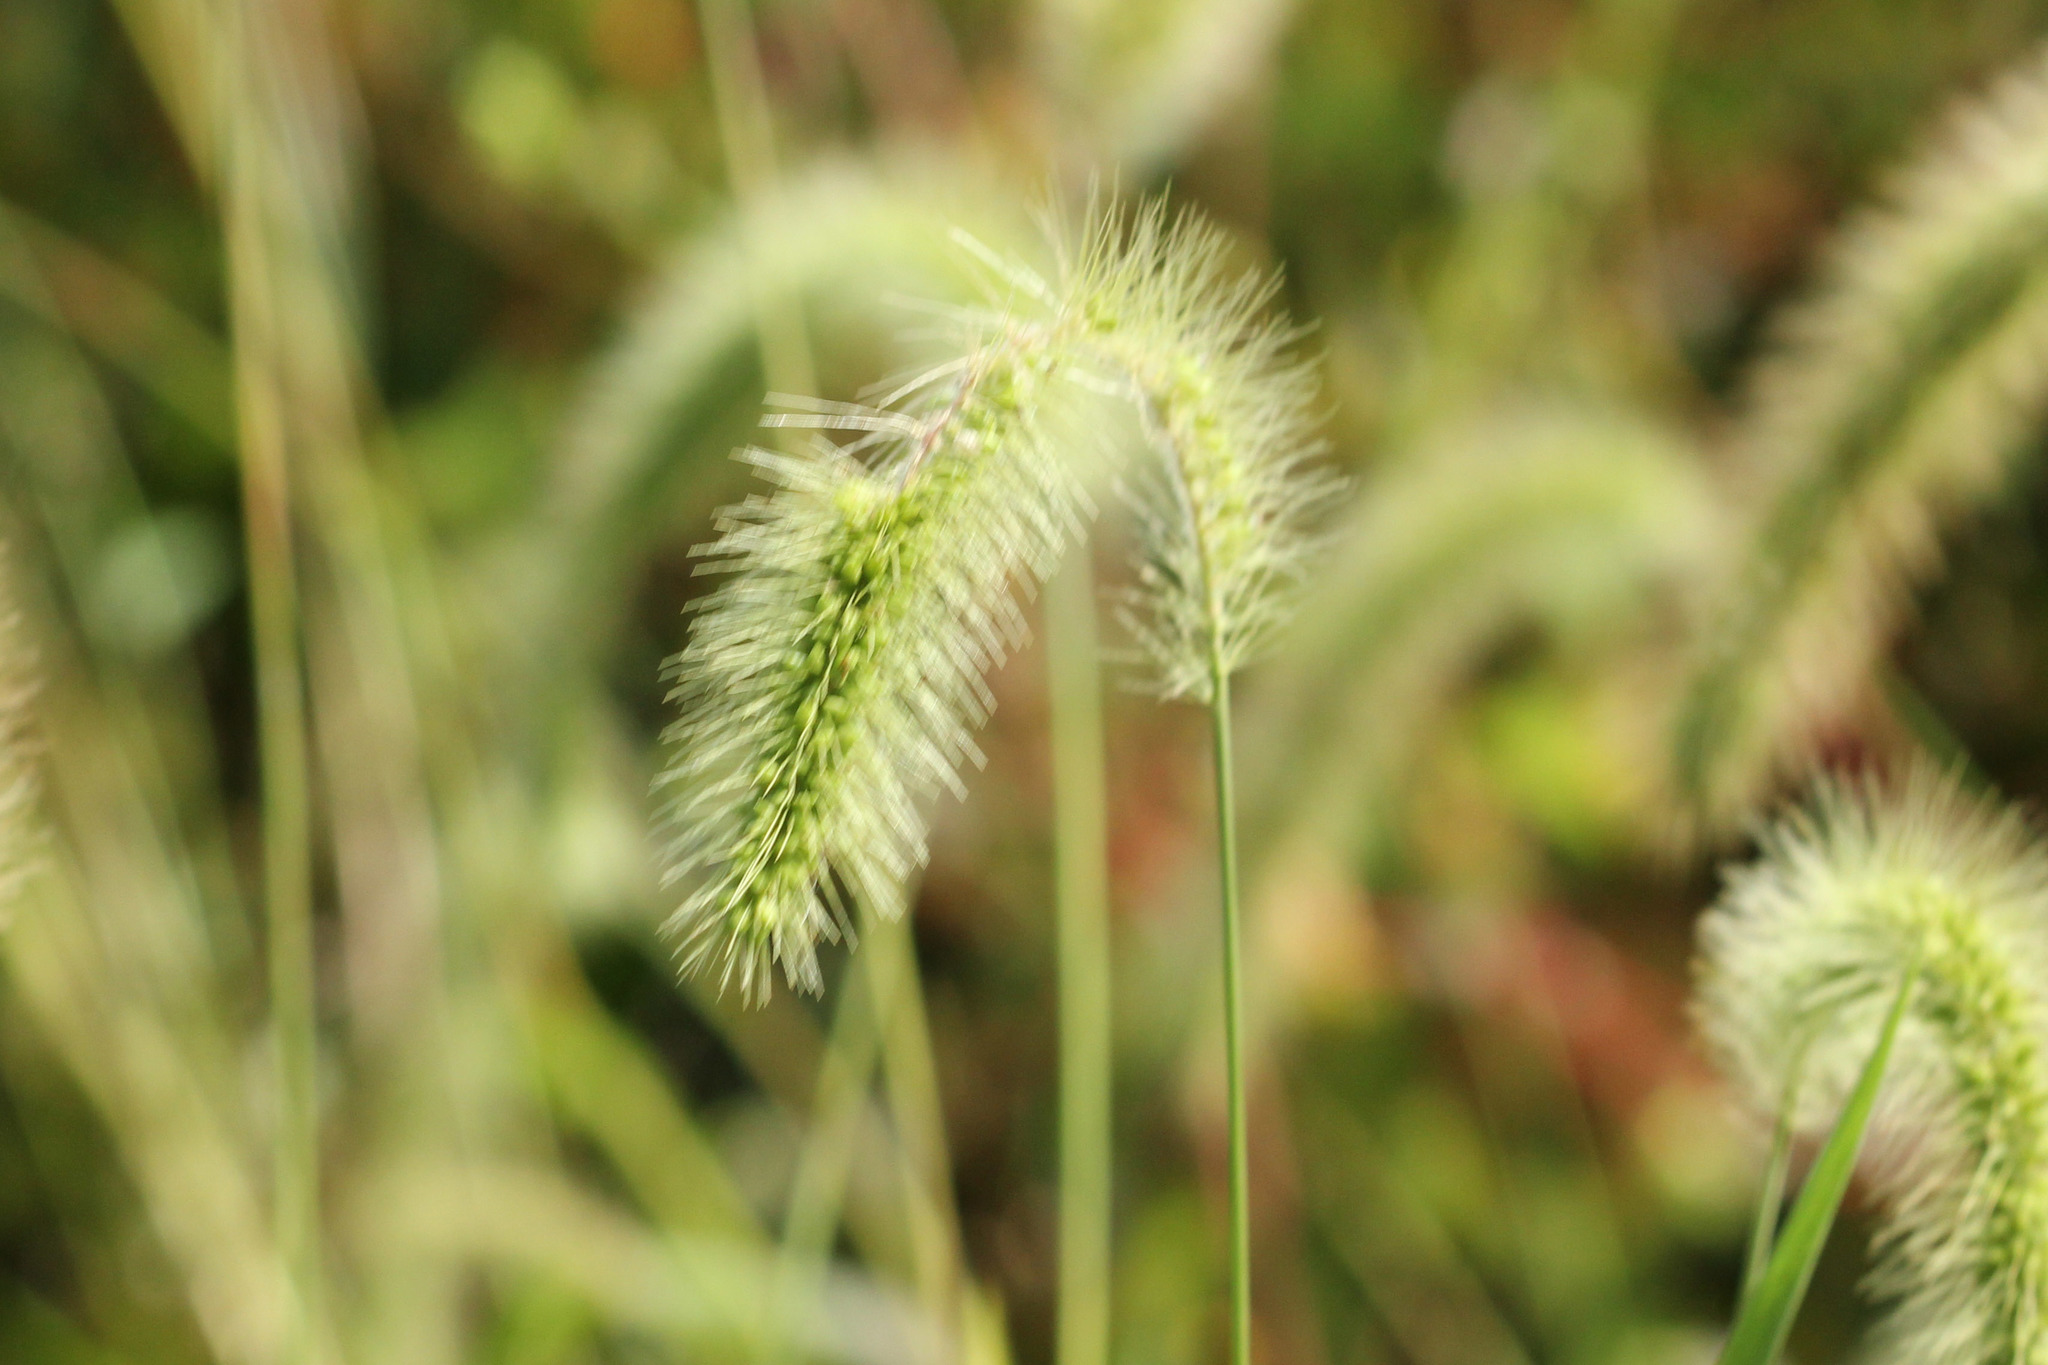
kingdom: Plantae
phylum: Tracheophyta
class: Liliopsida
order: Poales
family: Poaceae
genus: Setaria
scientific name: Setaria faberi
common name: Nodding bristle-grass
